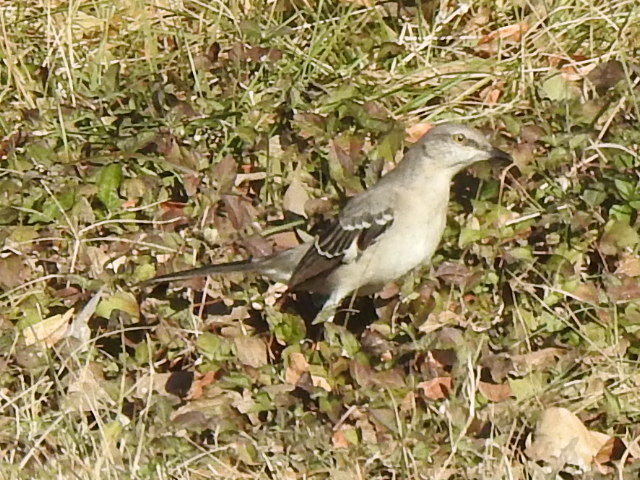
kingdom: Animalia
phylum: Chordata
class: Aves
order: Passeriformes
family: Mimidae
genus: Mimus
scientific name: Mimus polyglottos
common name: Northern mockingbird
